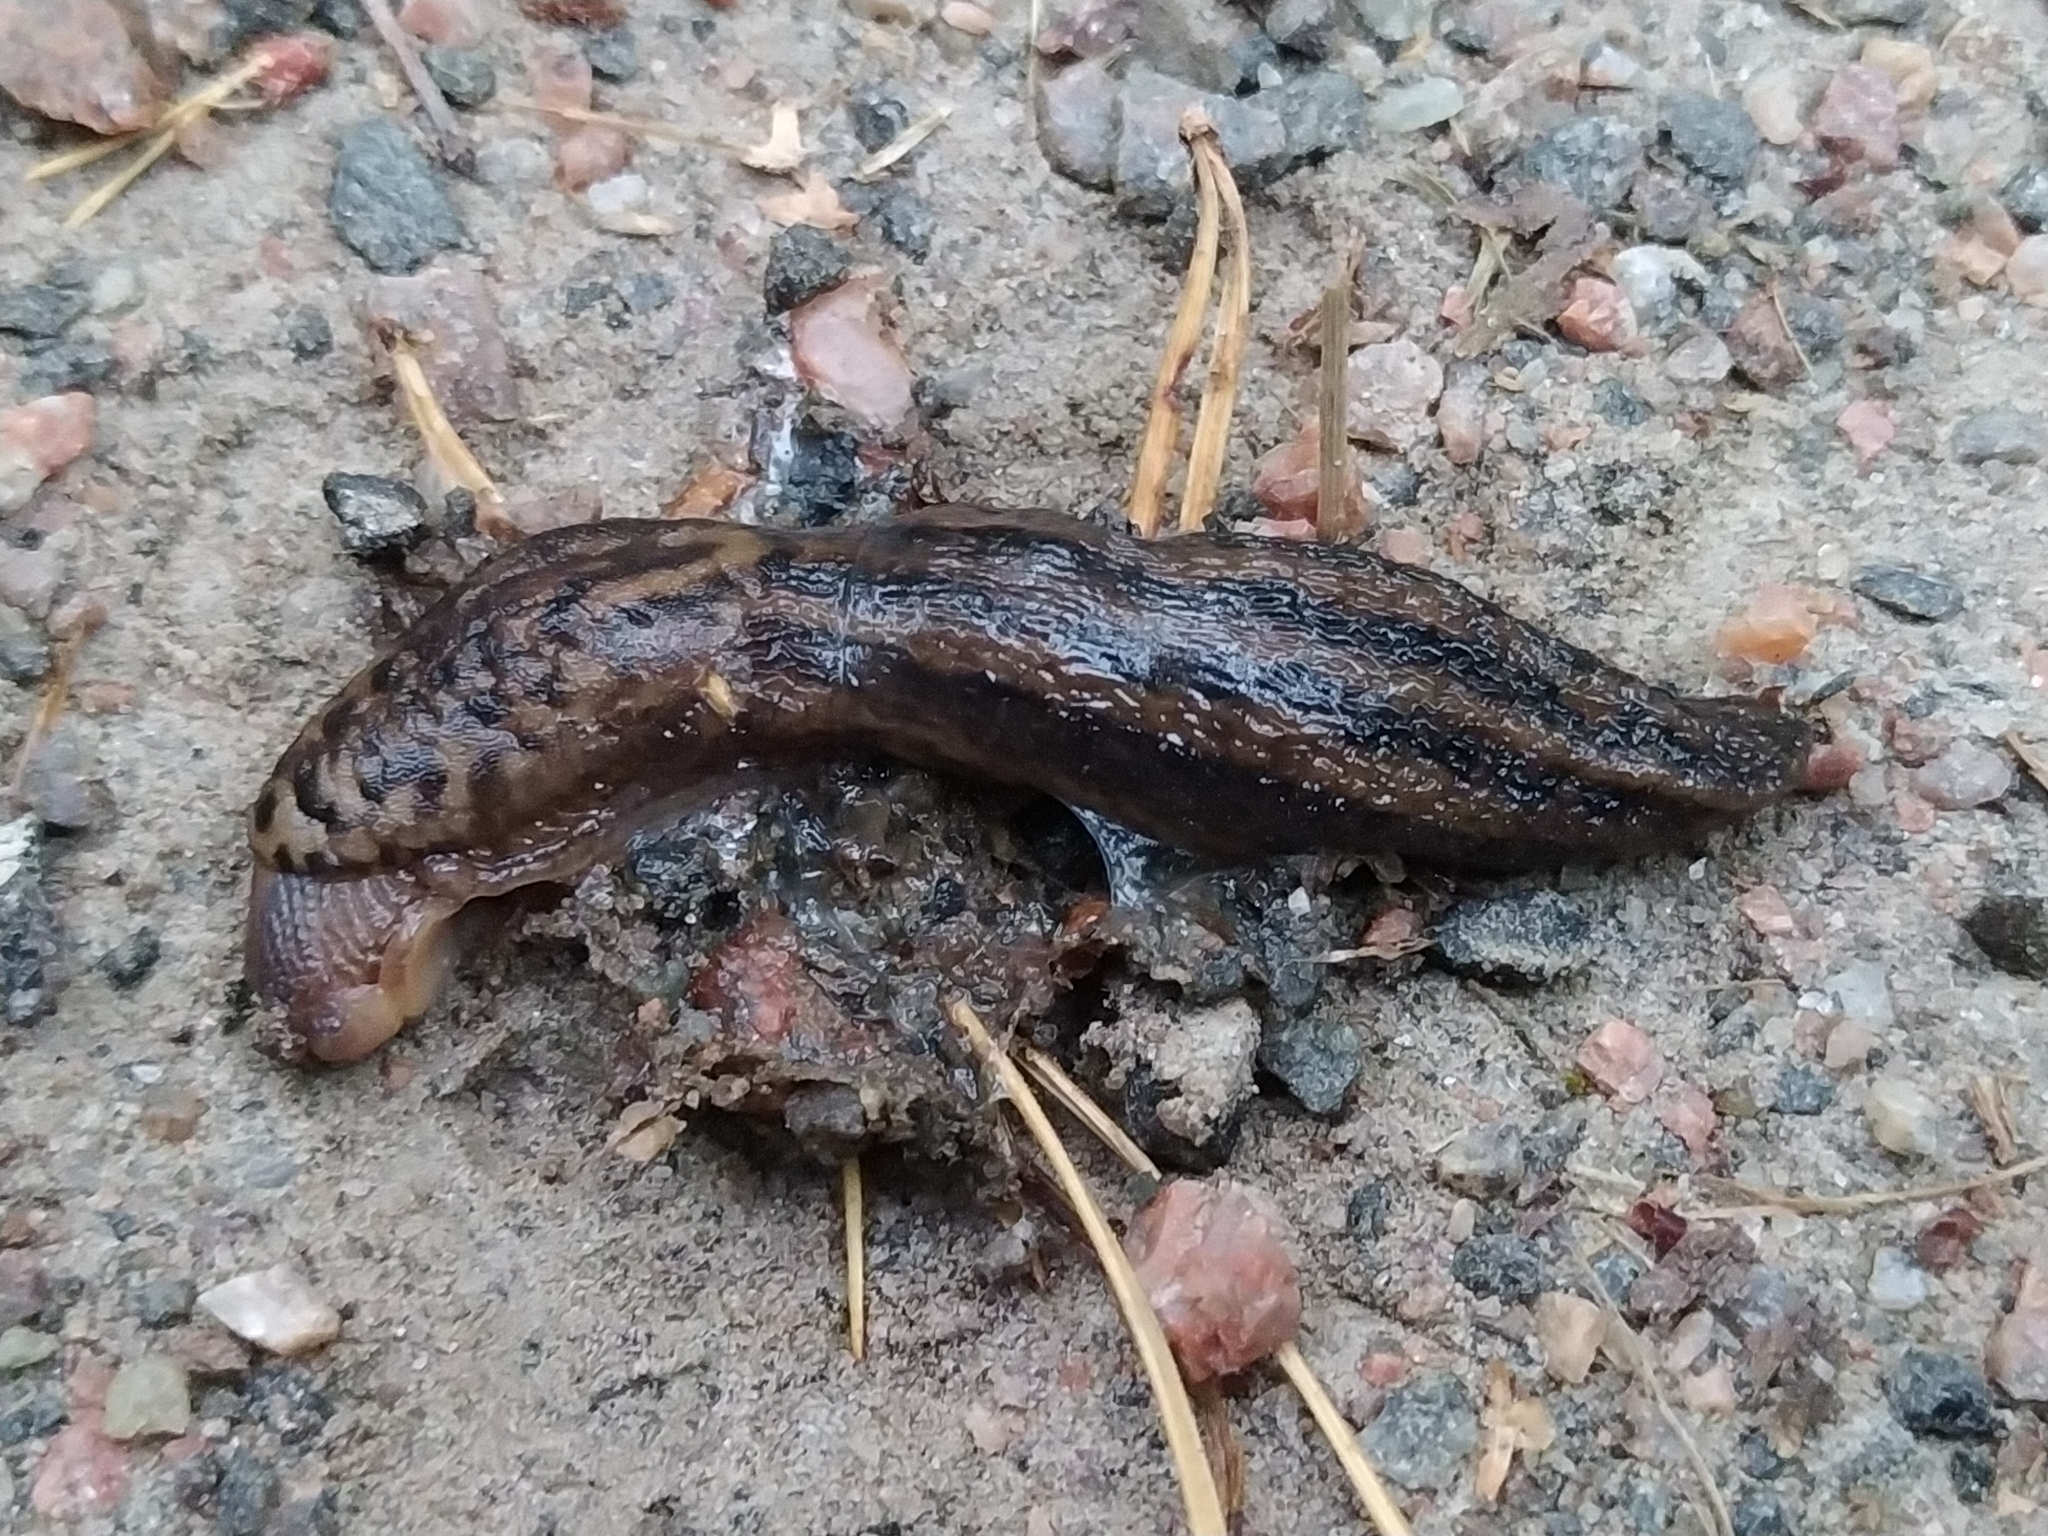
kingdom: Animalia
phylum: Mollusca
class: Gastropoda
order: Stylommatophora
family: Limacidae
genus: Limax
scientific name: Limax maximus
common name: Great grey slug
